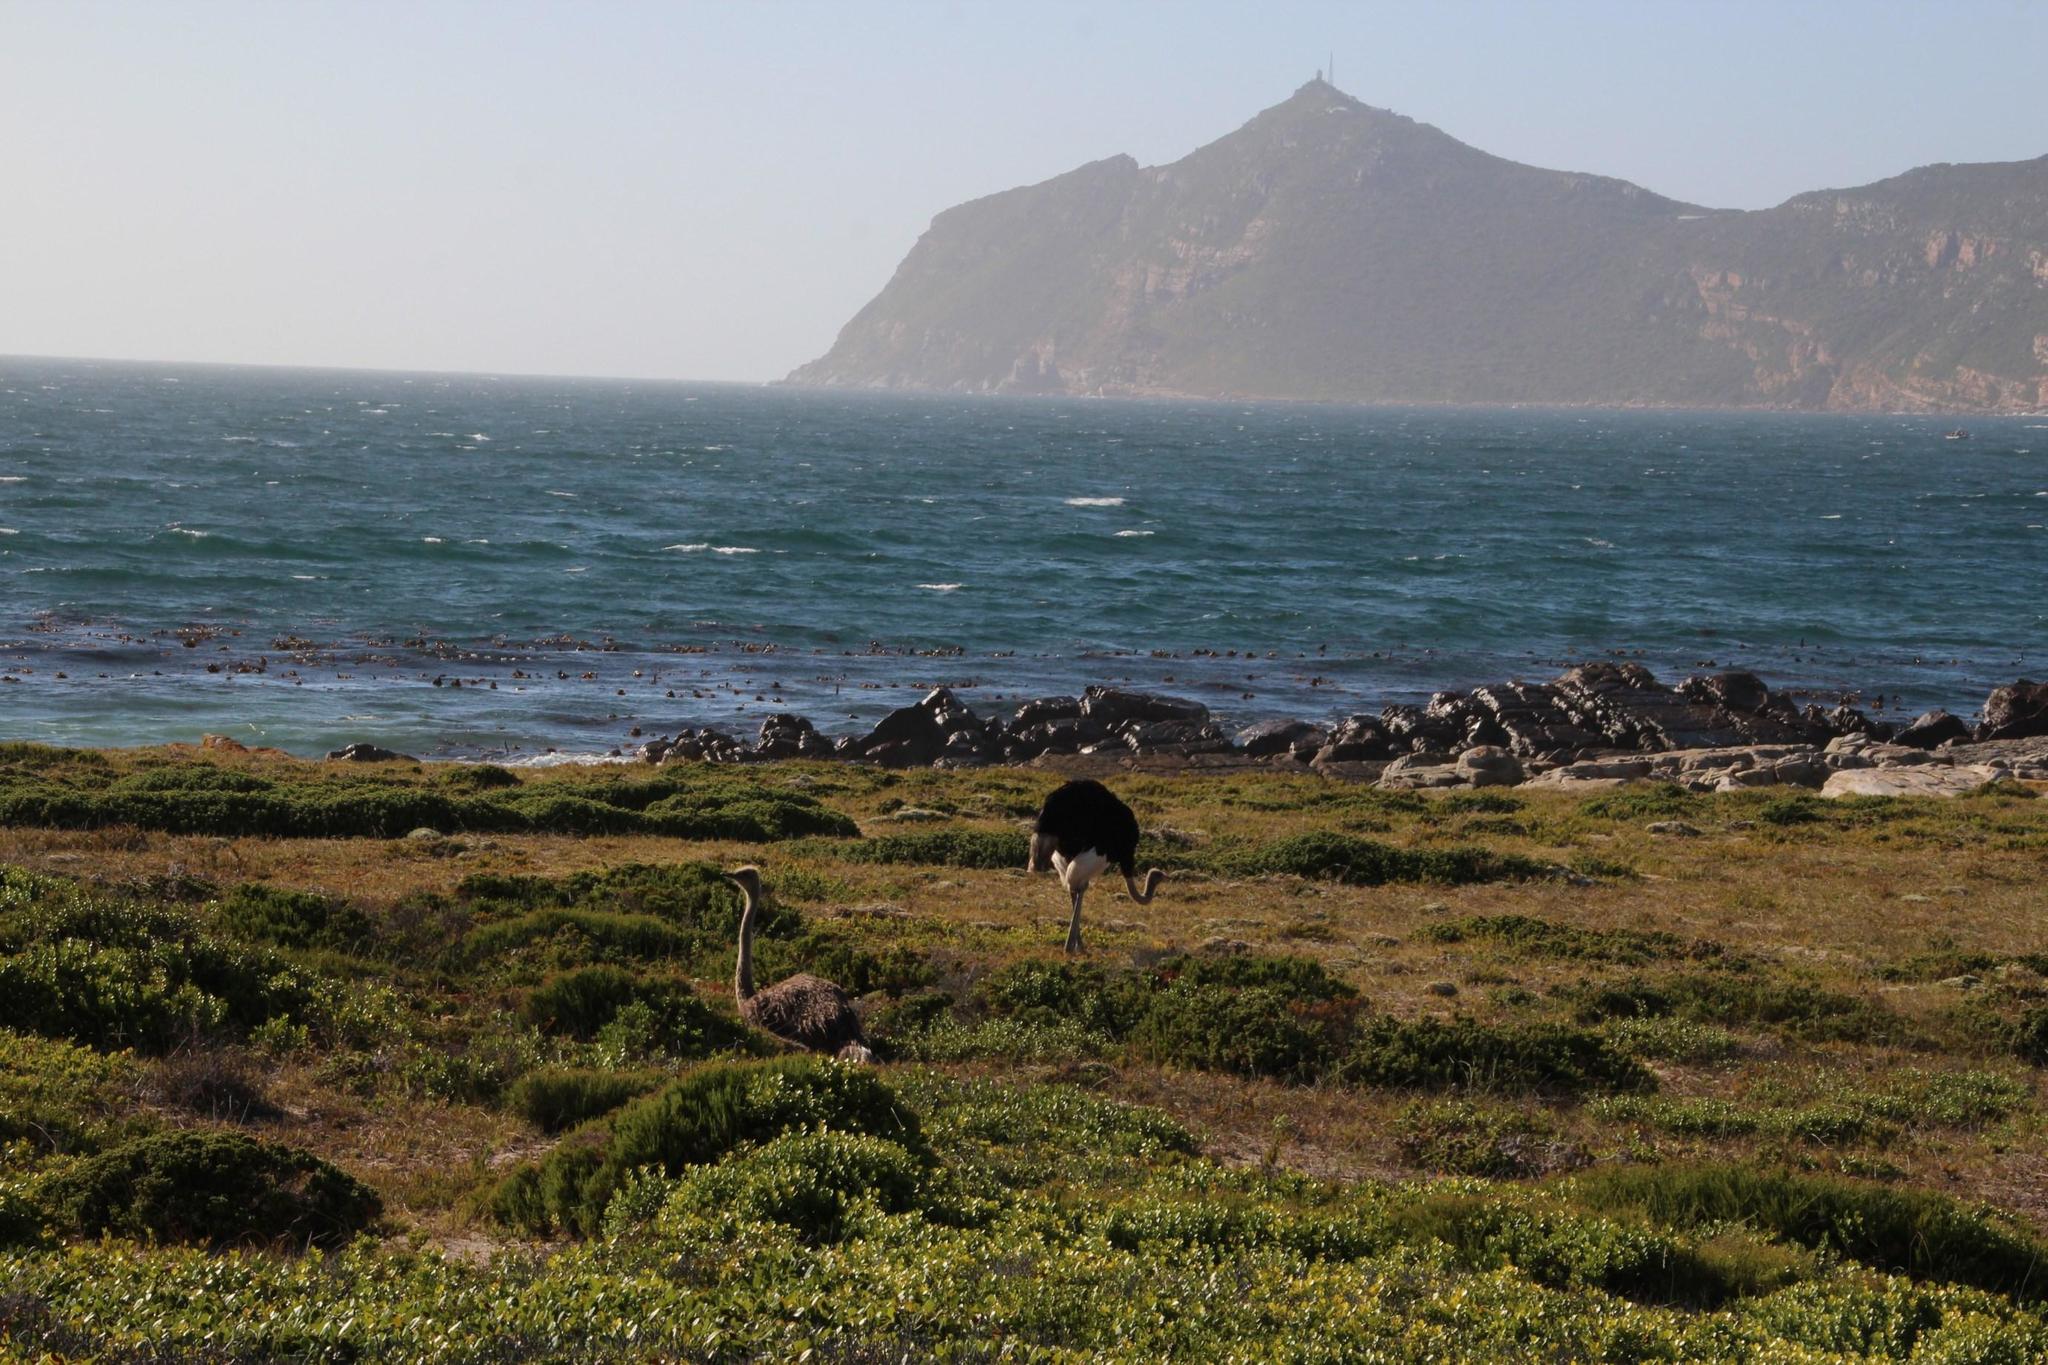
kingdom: Animalia
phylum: Chordata
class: Aves
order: Struthioniformes
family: Struthionidae
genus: Struthio
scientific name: Struthio camelus
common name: Common ostrich
